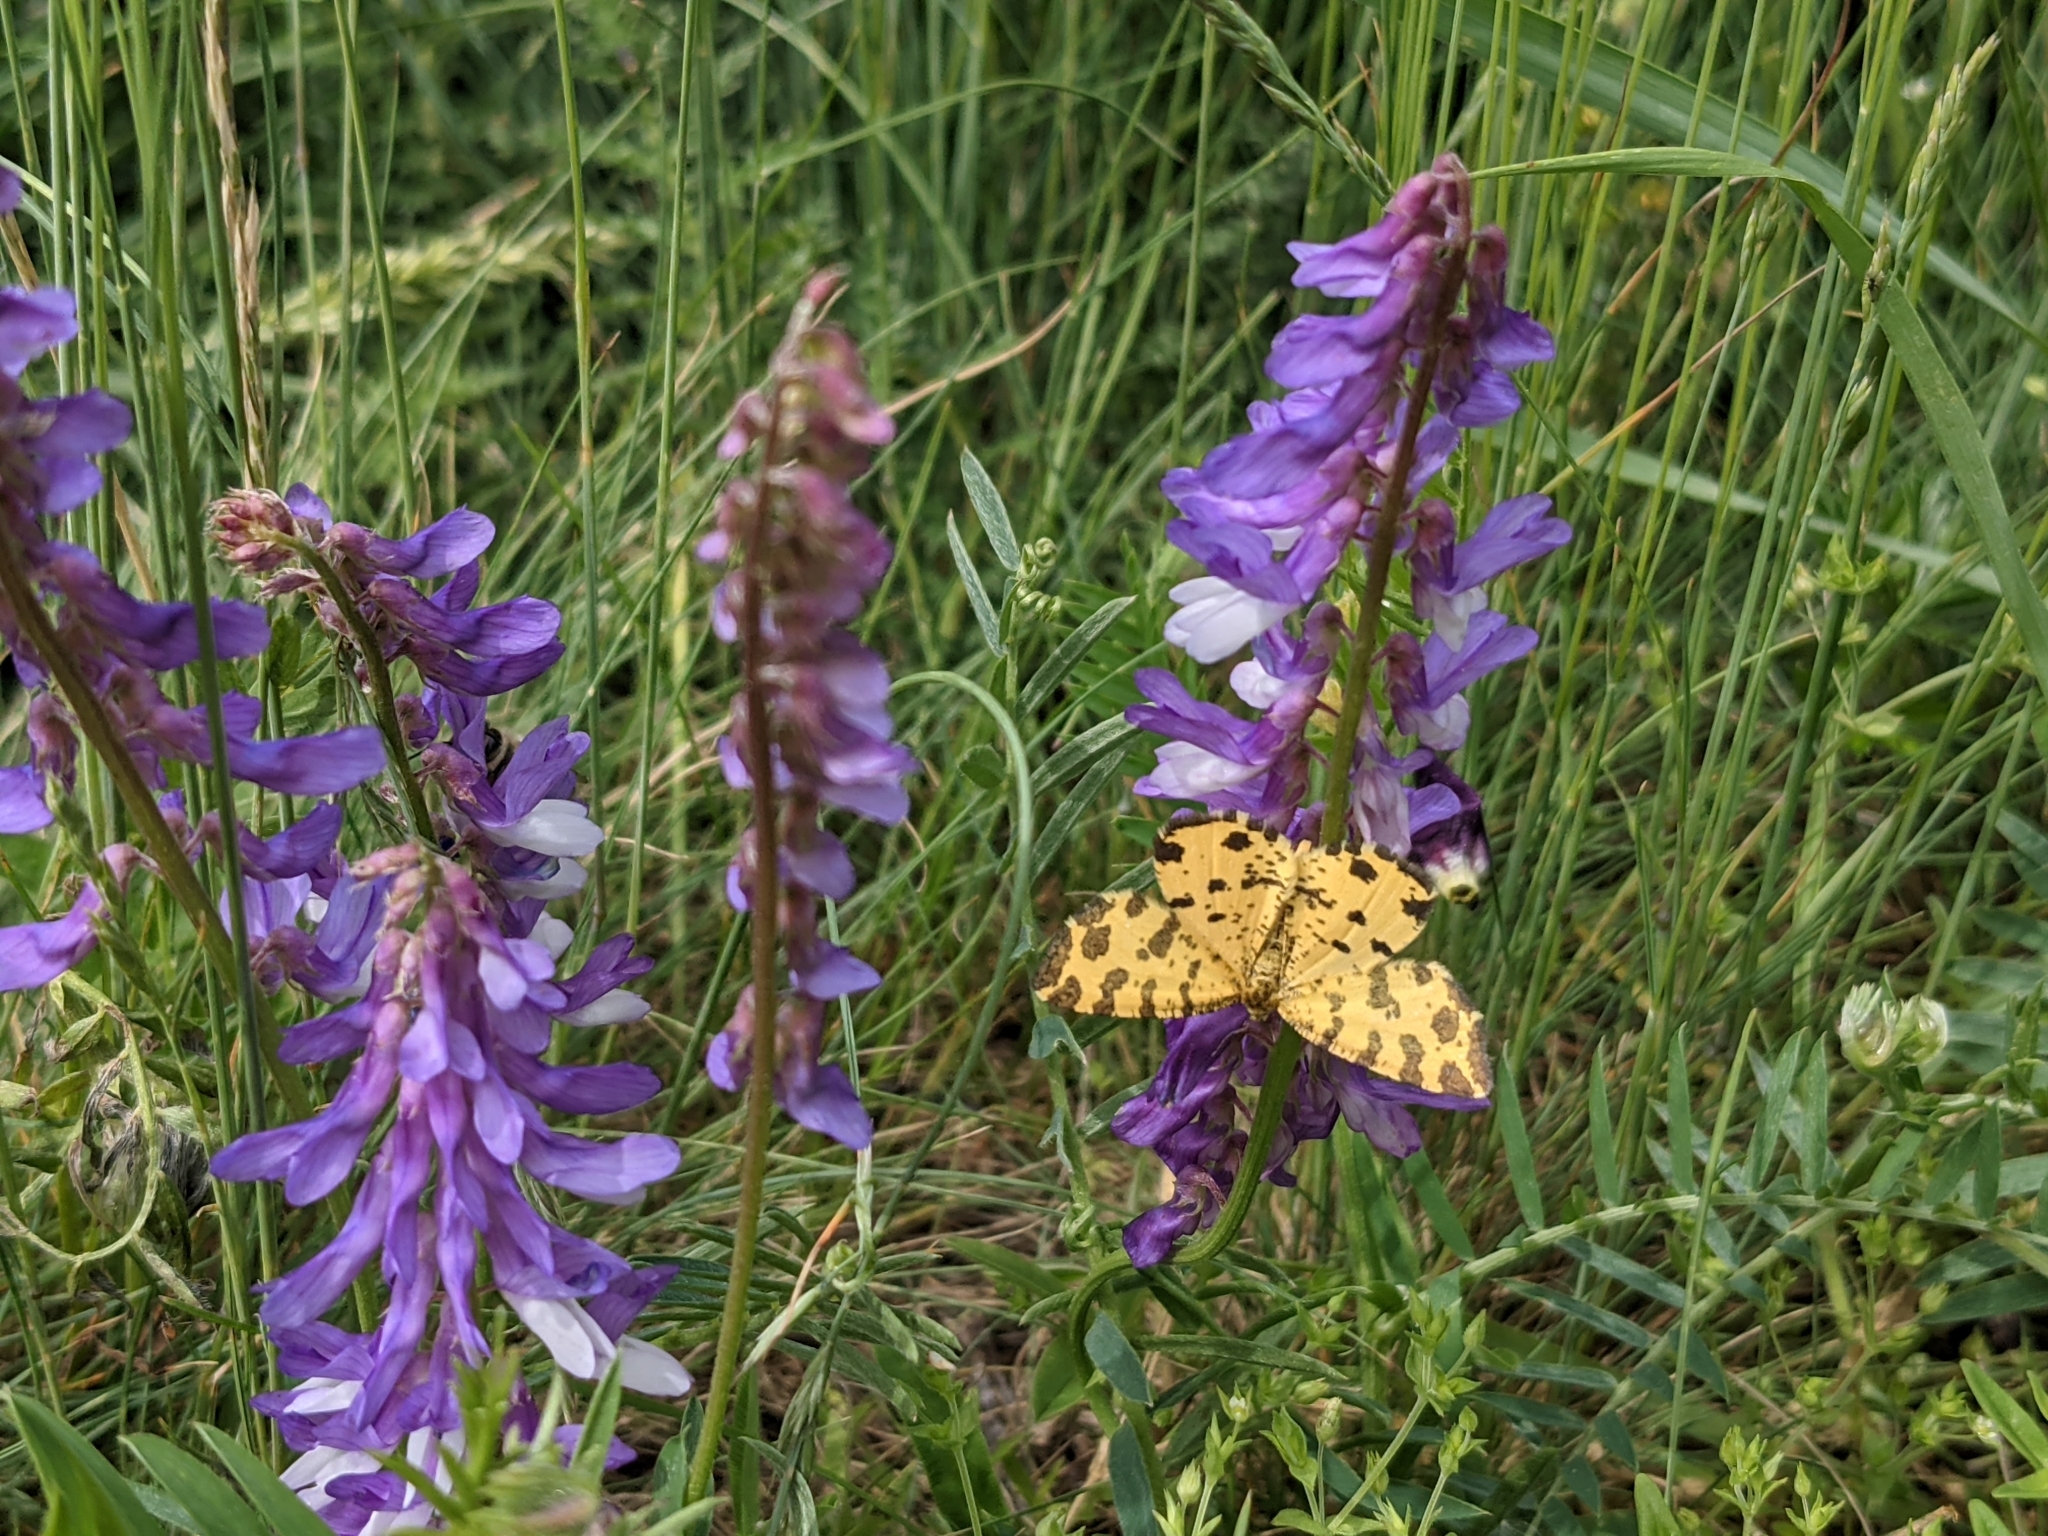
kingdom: Animalia
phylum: Arthropoda
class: Insecta
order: Lepidoptera
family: Geometridae
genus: Pseudopanthera
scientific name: Pseudopanthera macularia
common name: Speckled yellow
